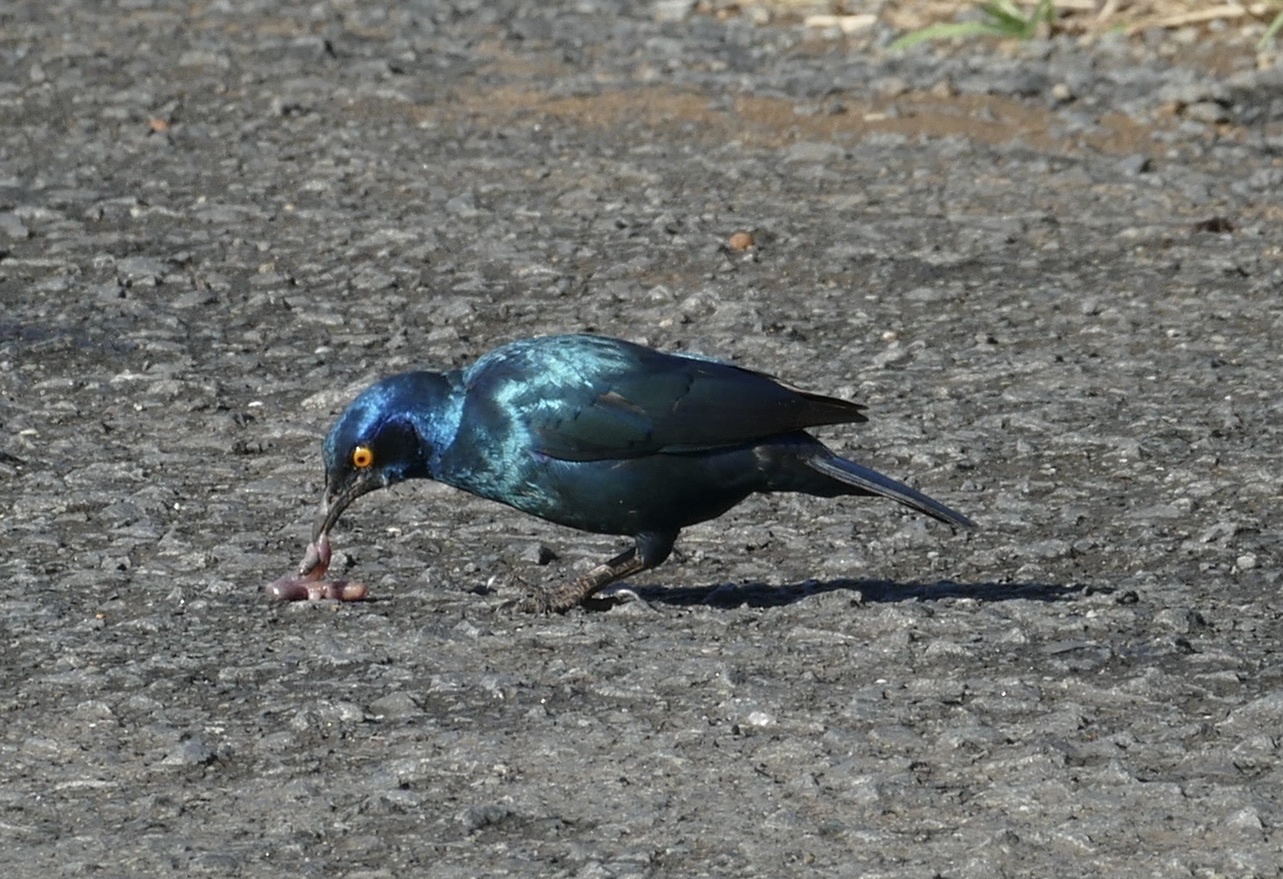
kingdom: Animalia
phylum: Chordata
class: Aves
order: Passeriformes
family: Sturnidae
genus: Lamprotornis
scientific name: Lamprotornis nitens
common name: Cape starling
